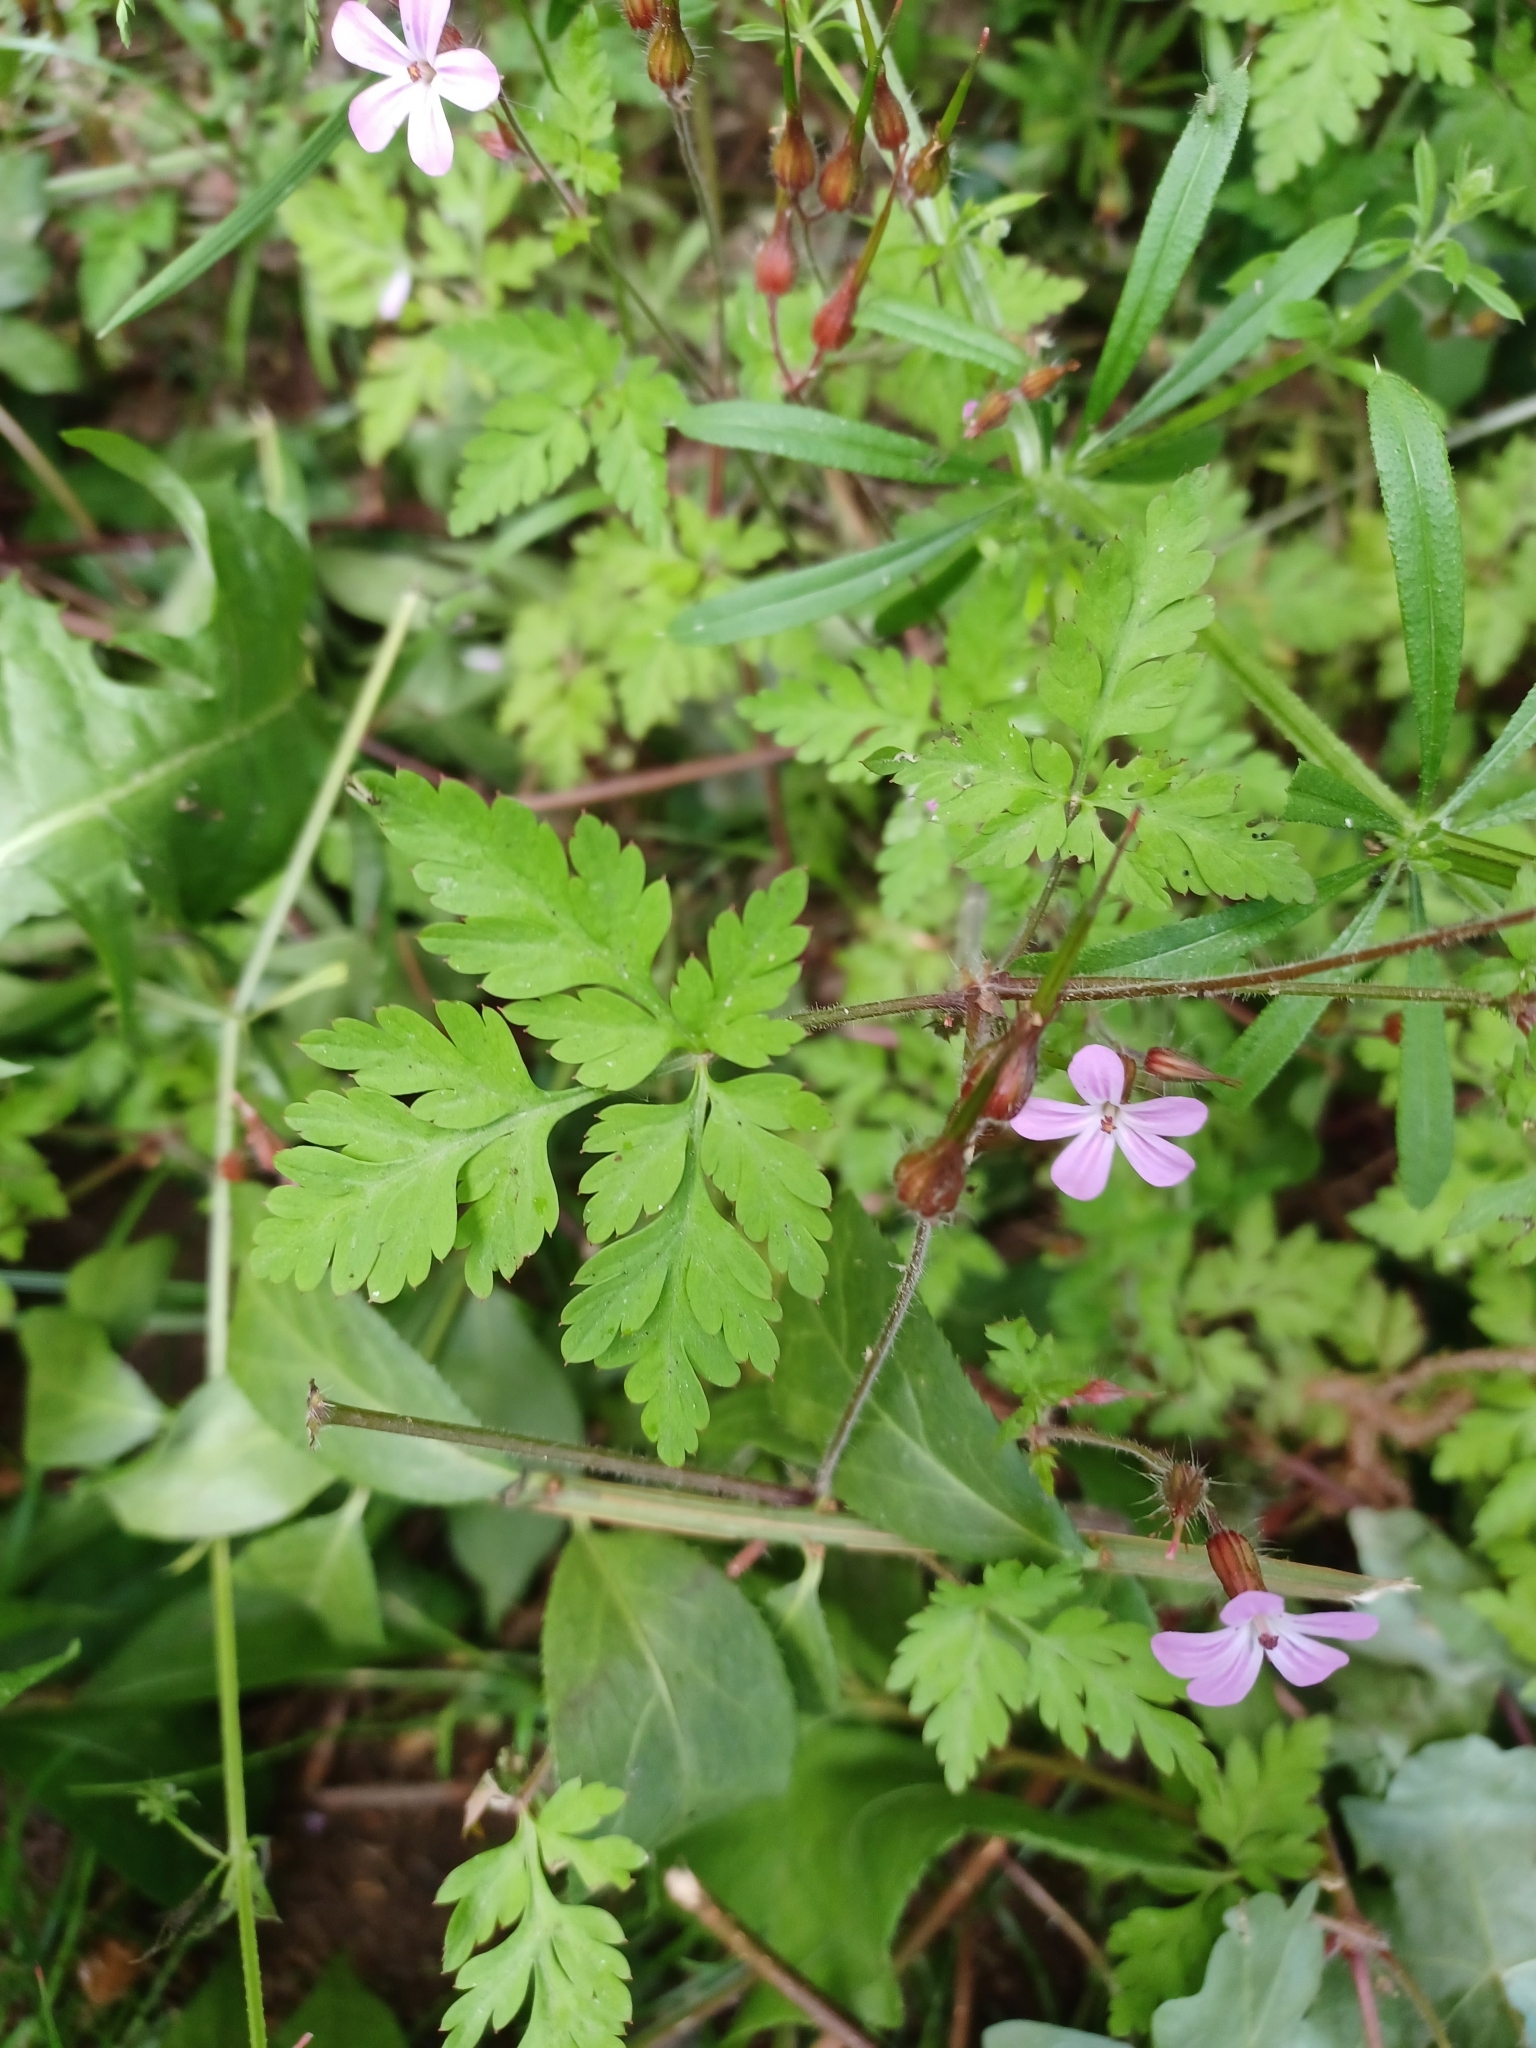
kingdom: Plantae
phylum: Tracheophyta
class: Magnoliopsida
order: Geraniales
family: Geraniaceae
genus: Geranium
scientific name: Geranium robertianum
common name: Herb-robert
